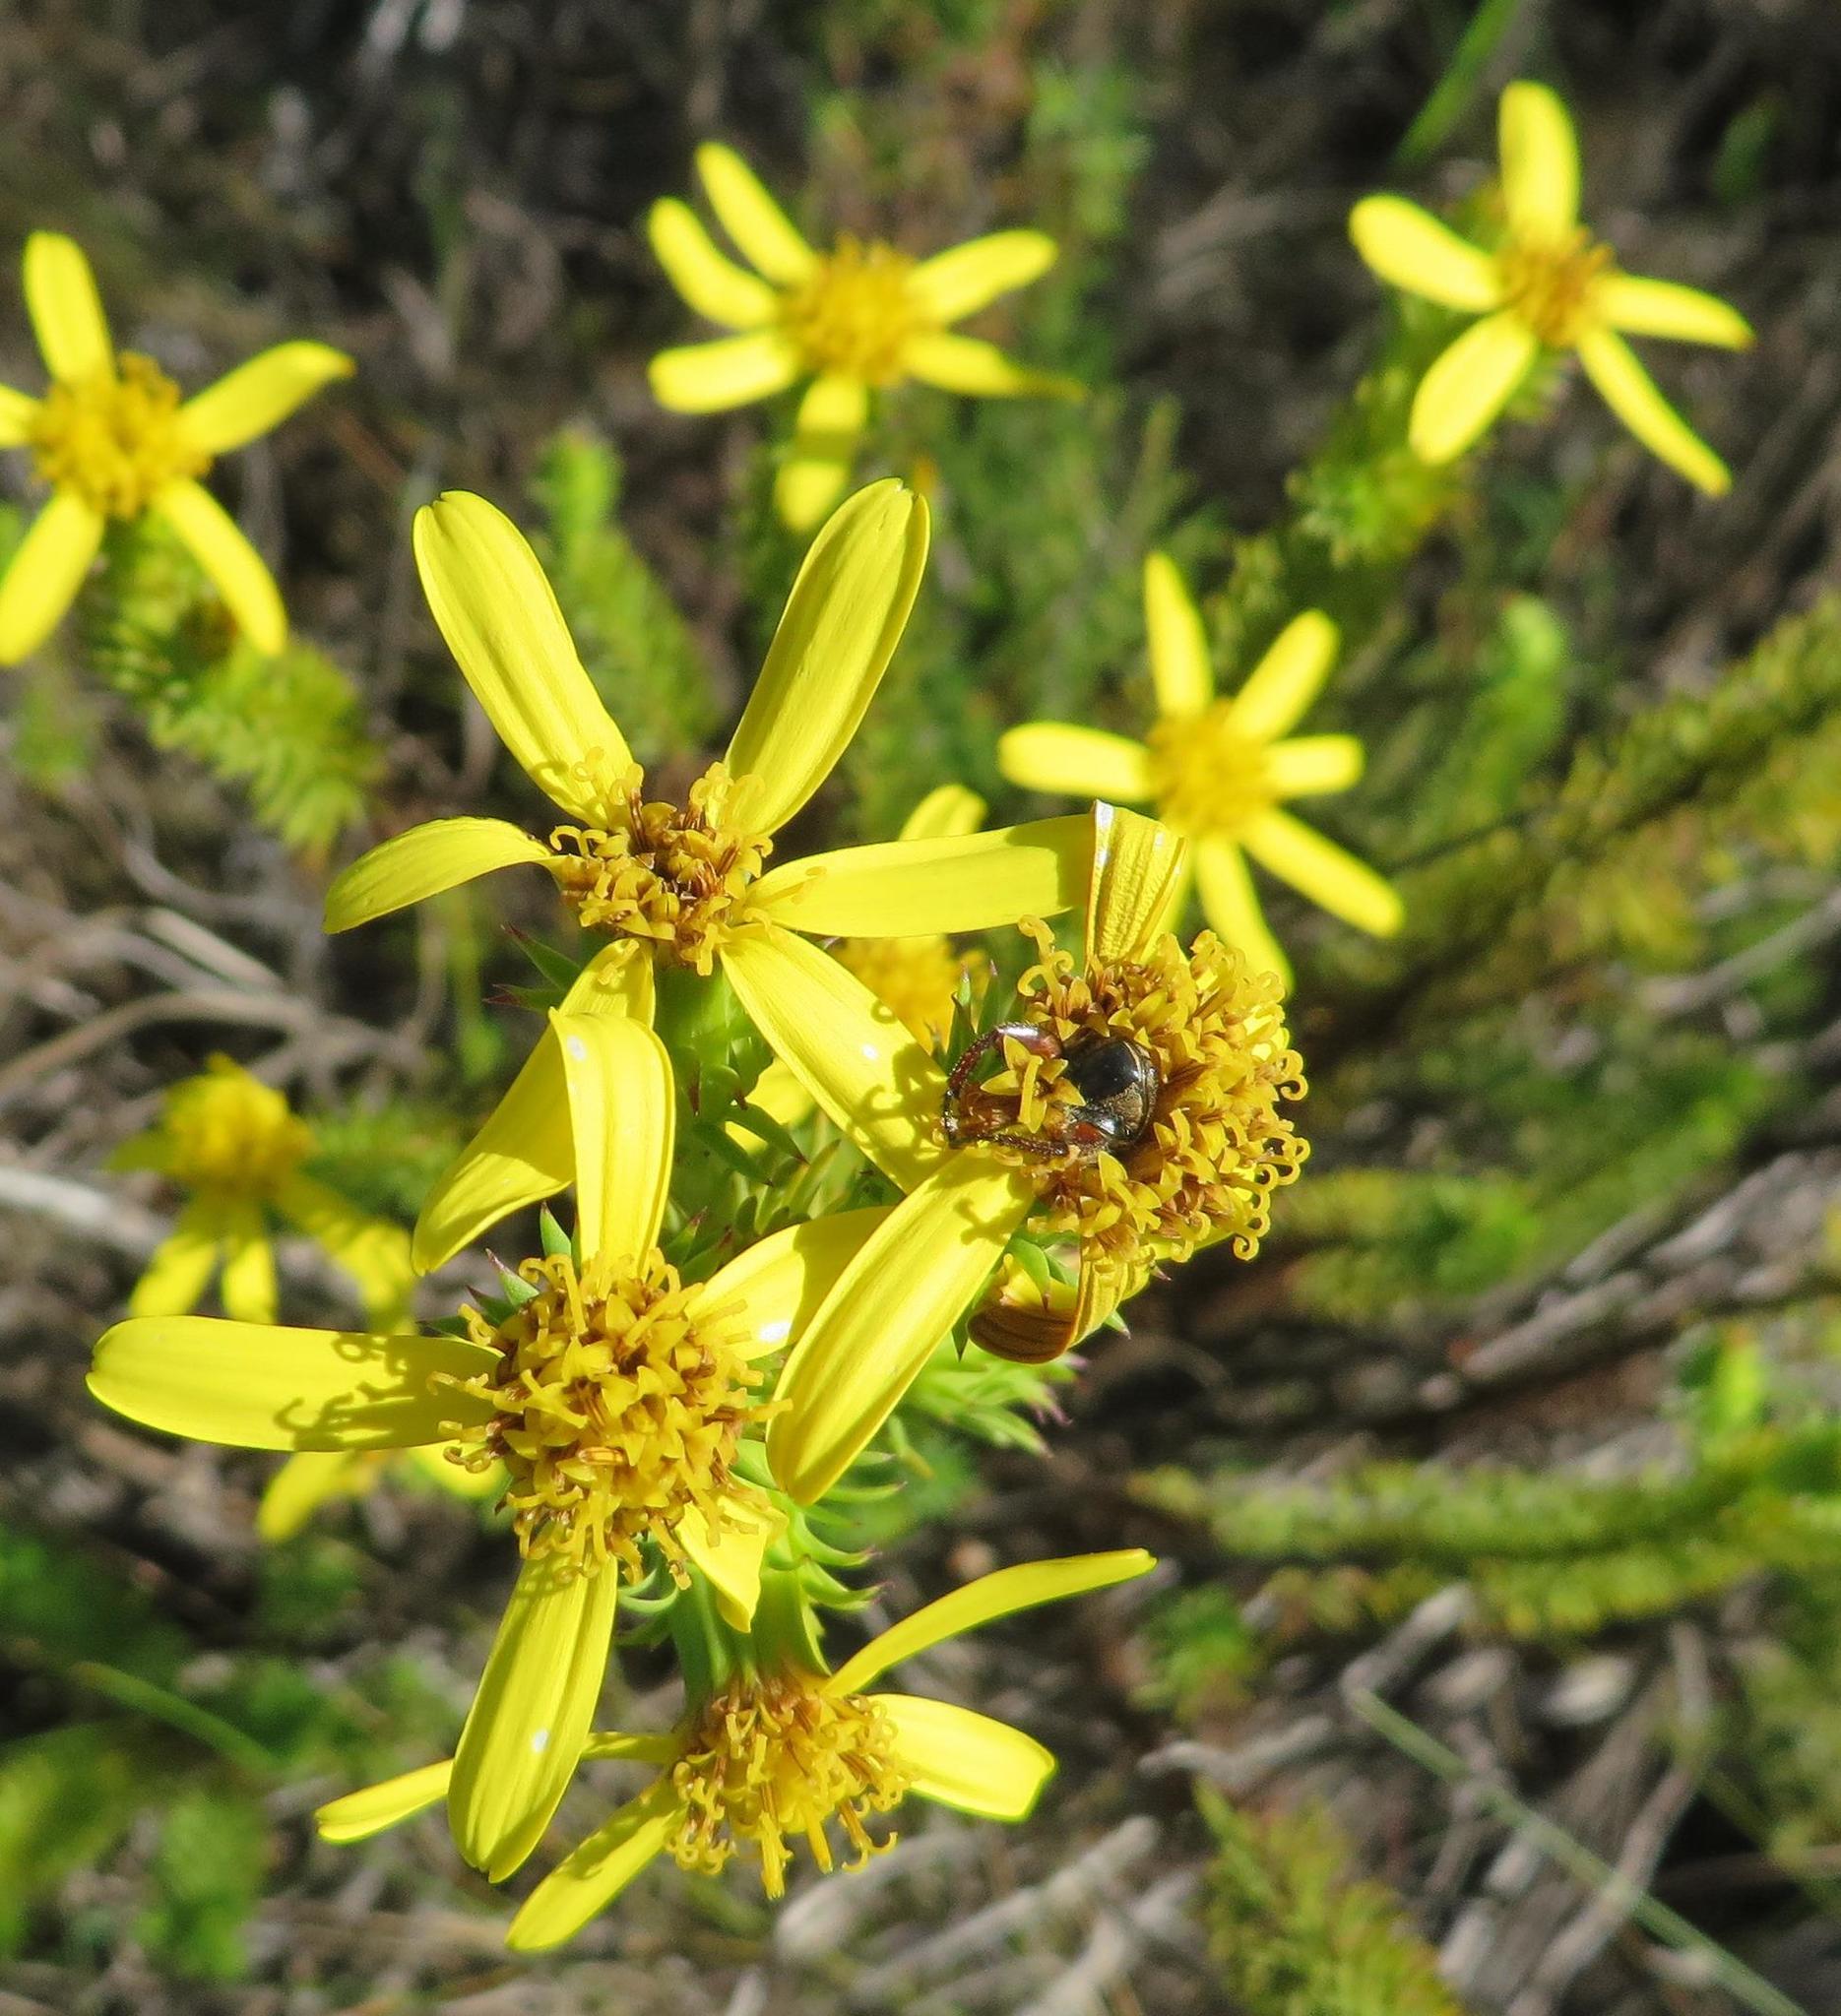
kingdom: Plantae
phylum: Tracheophyta
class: Magnoliopsida
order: Asterales
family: Asteraceae
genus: Senecio
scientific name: Senecio pinifolius
